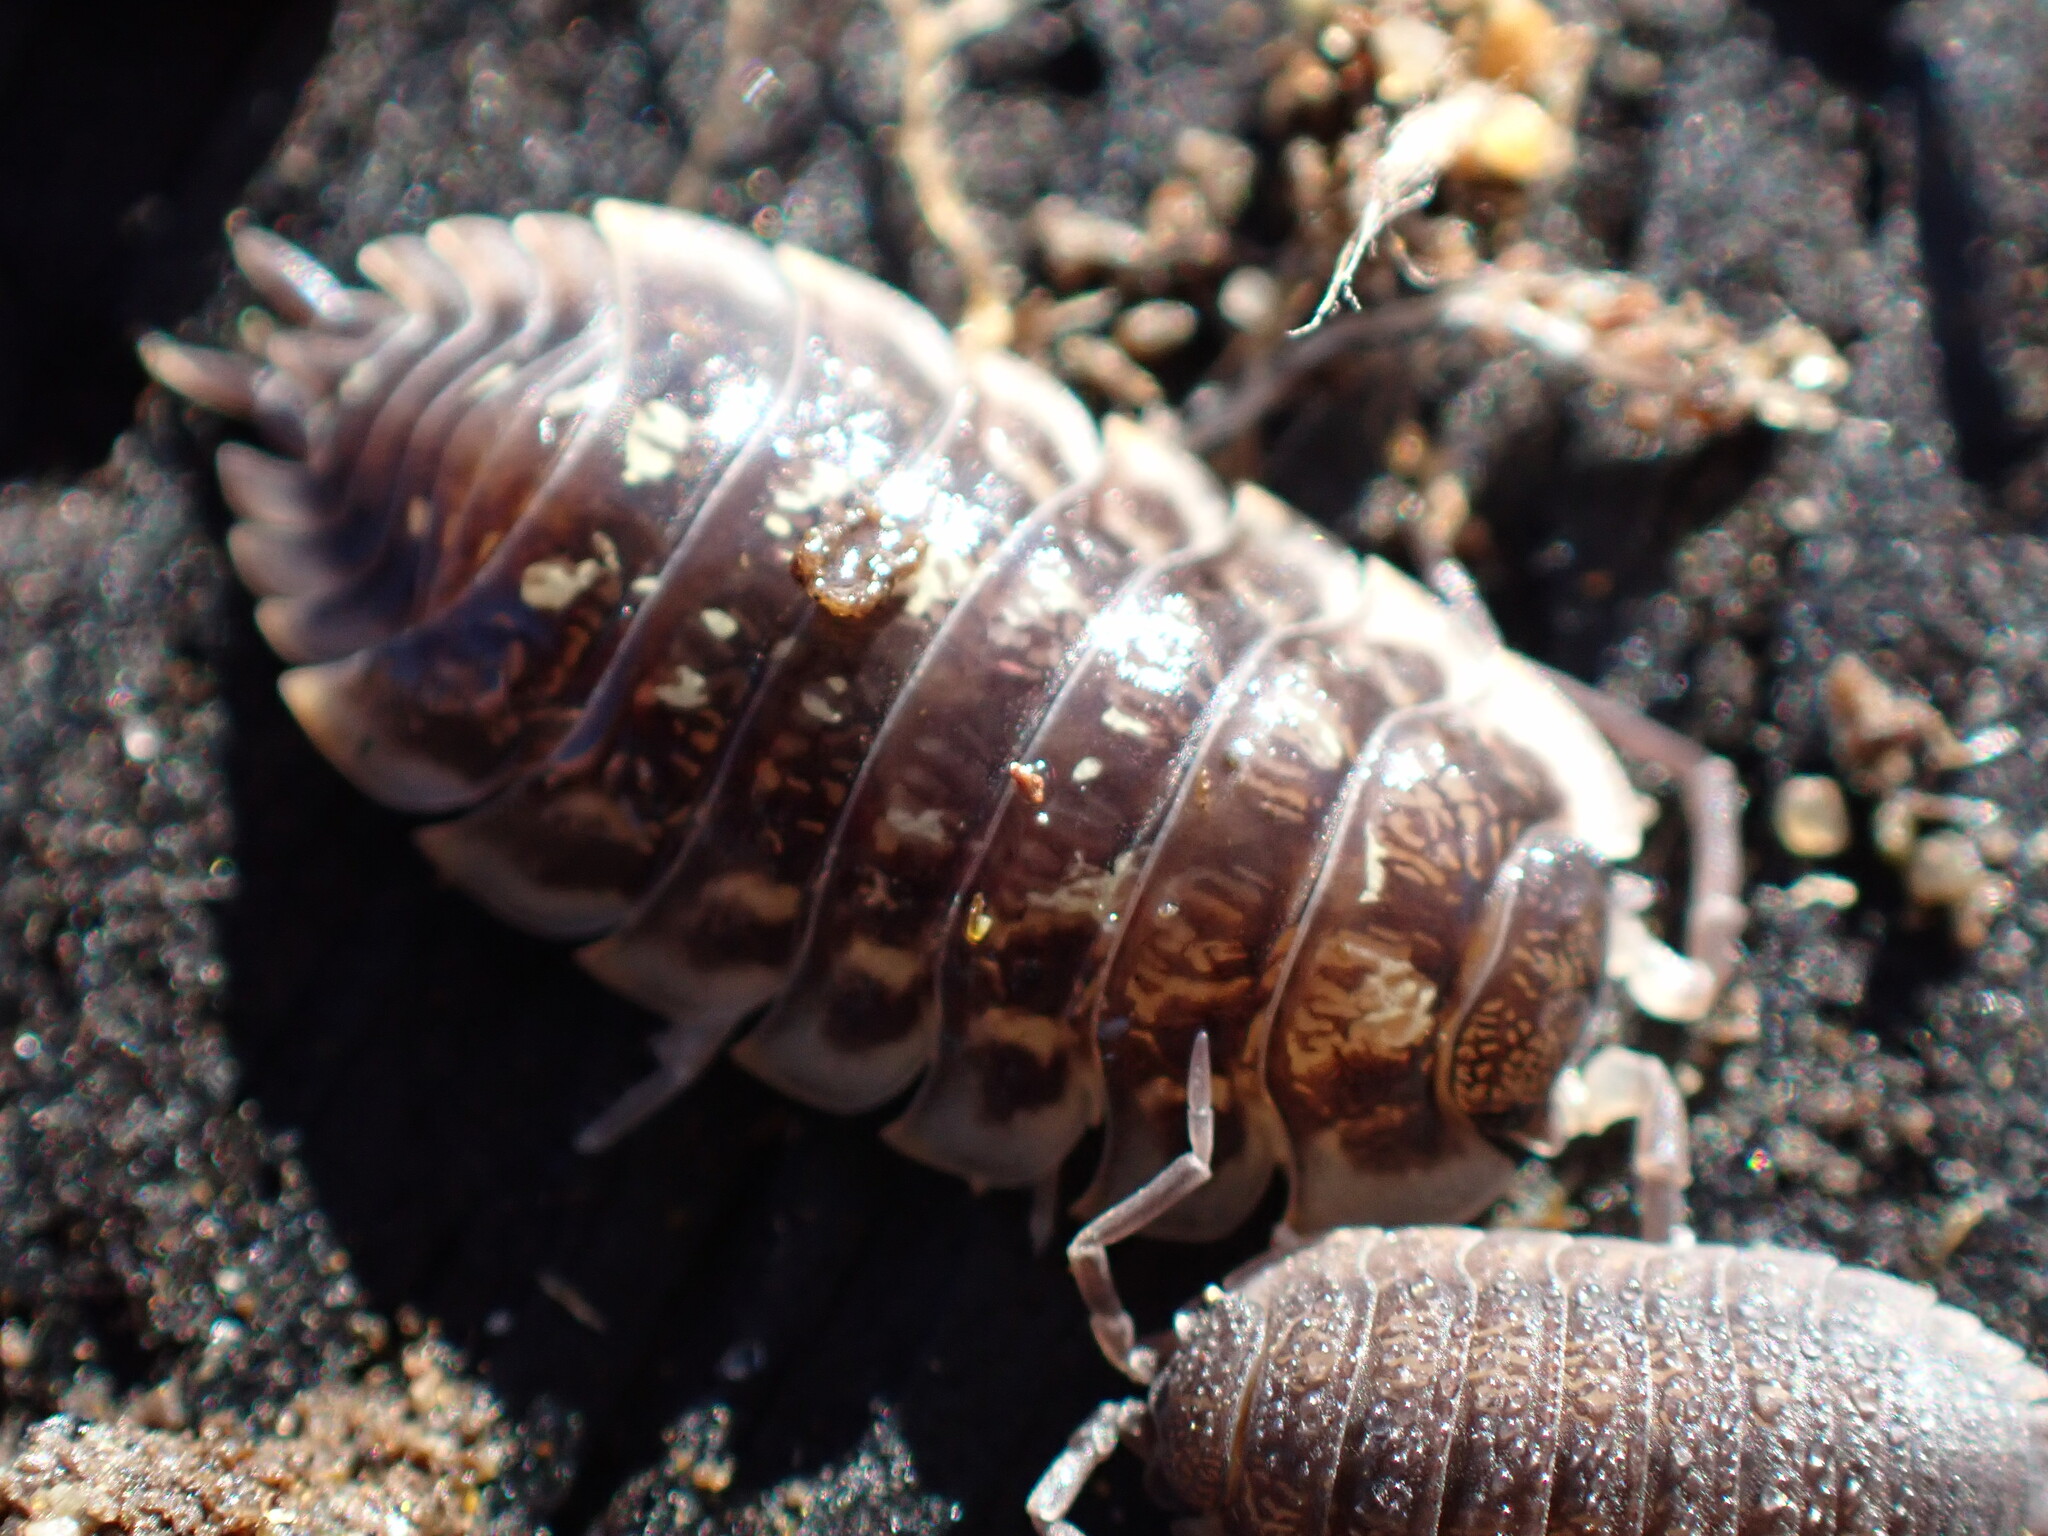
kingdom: Animalia
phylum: Arthropoda
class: Malacostraca
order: Isopoda
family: Oniscidae
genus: Oniscus
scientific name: Oniscus asellus
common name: Common shiny woodlouse
